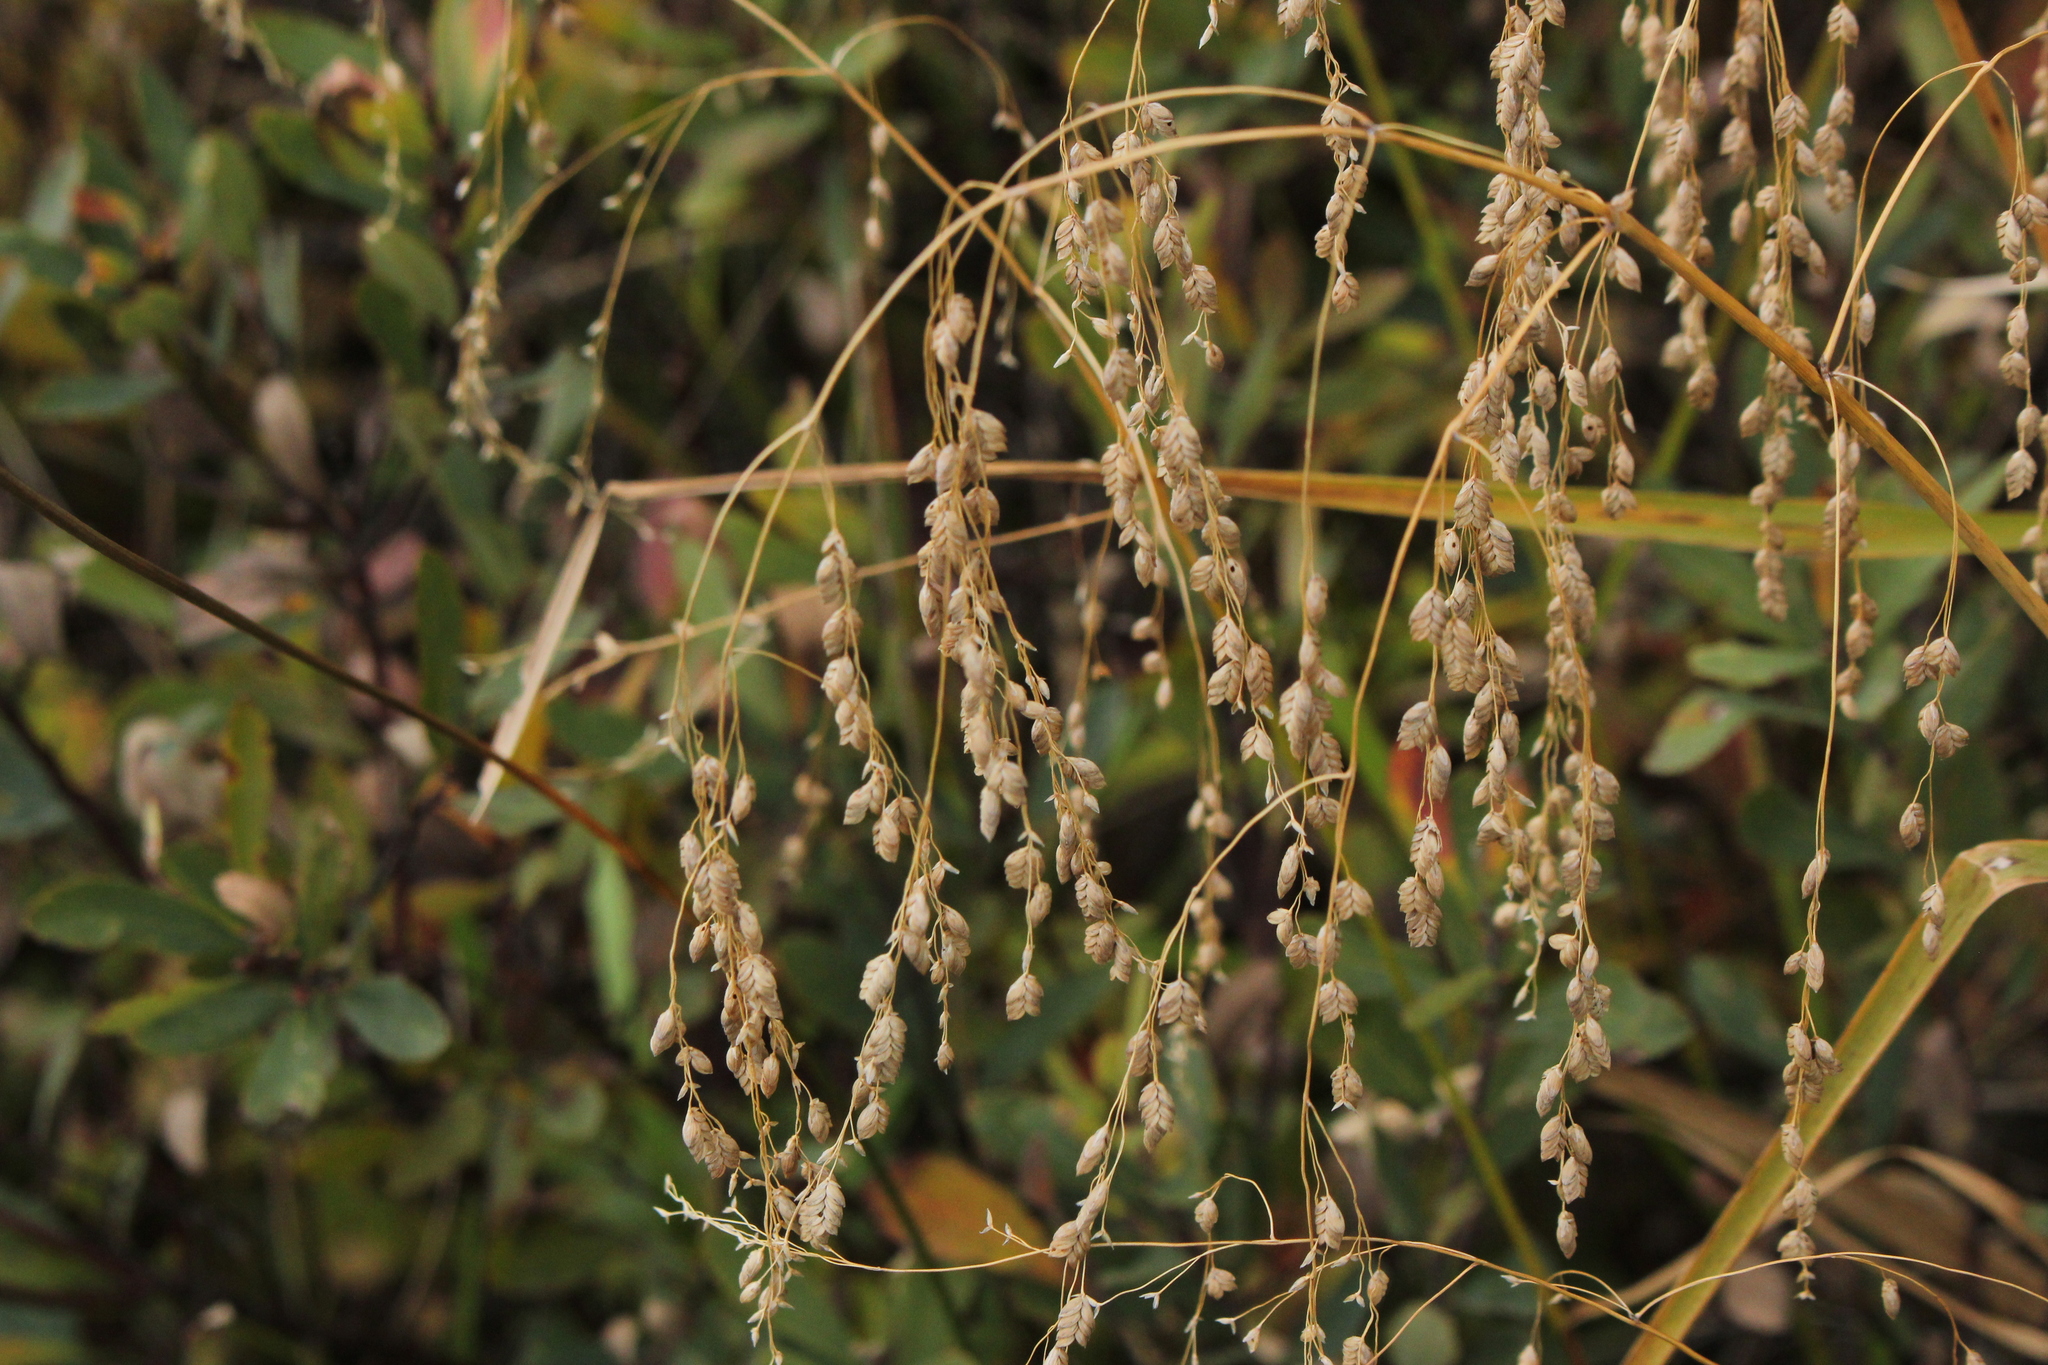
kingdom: Plantae
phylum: Tracheophyta
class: Liliopsida
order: Poales
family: Poaceae
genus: Glyceria
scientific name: Glyceria canadensis
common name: Canada mannagrass
